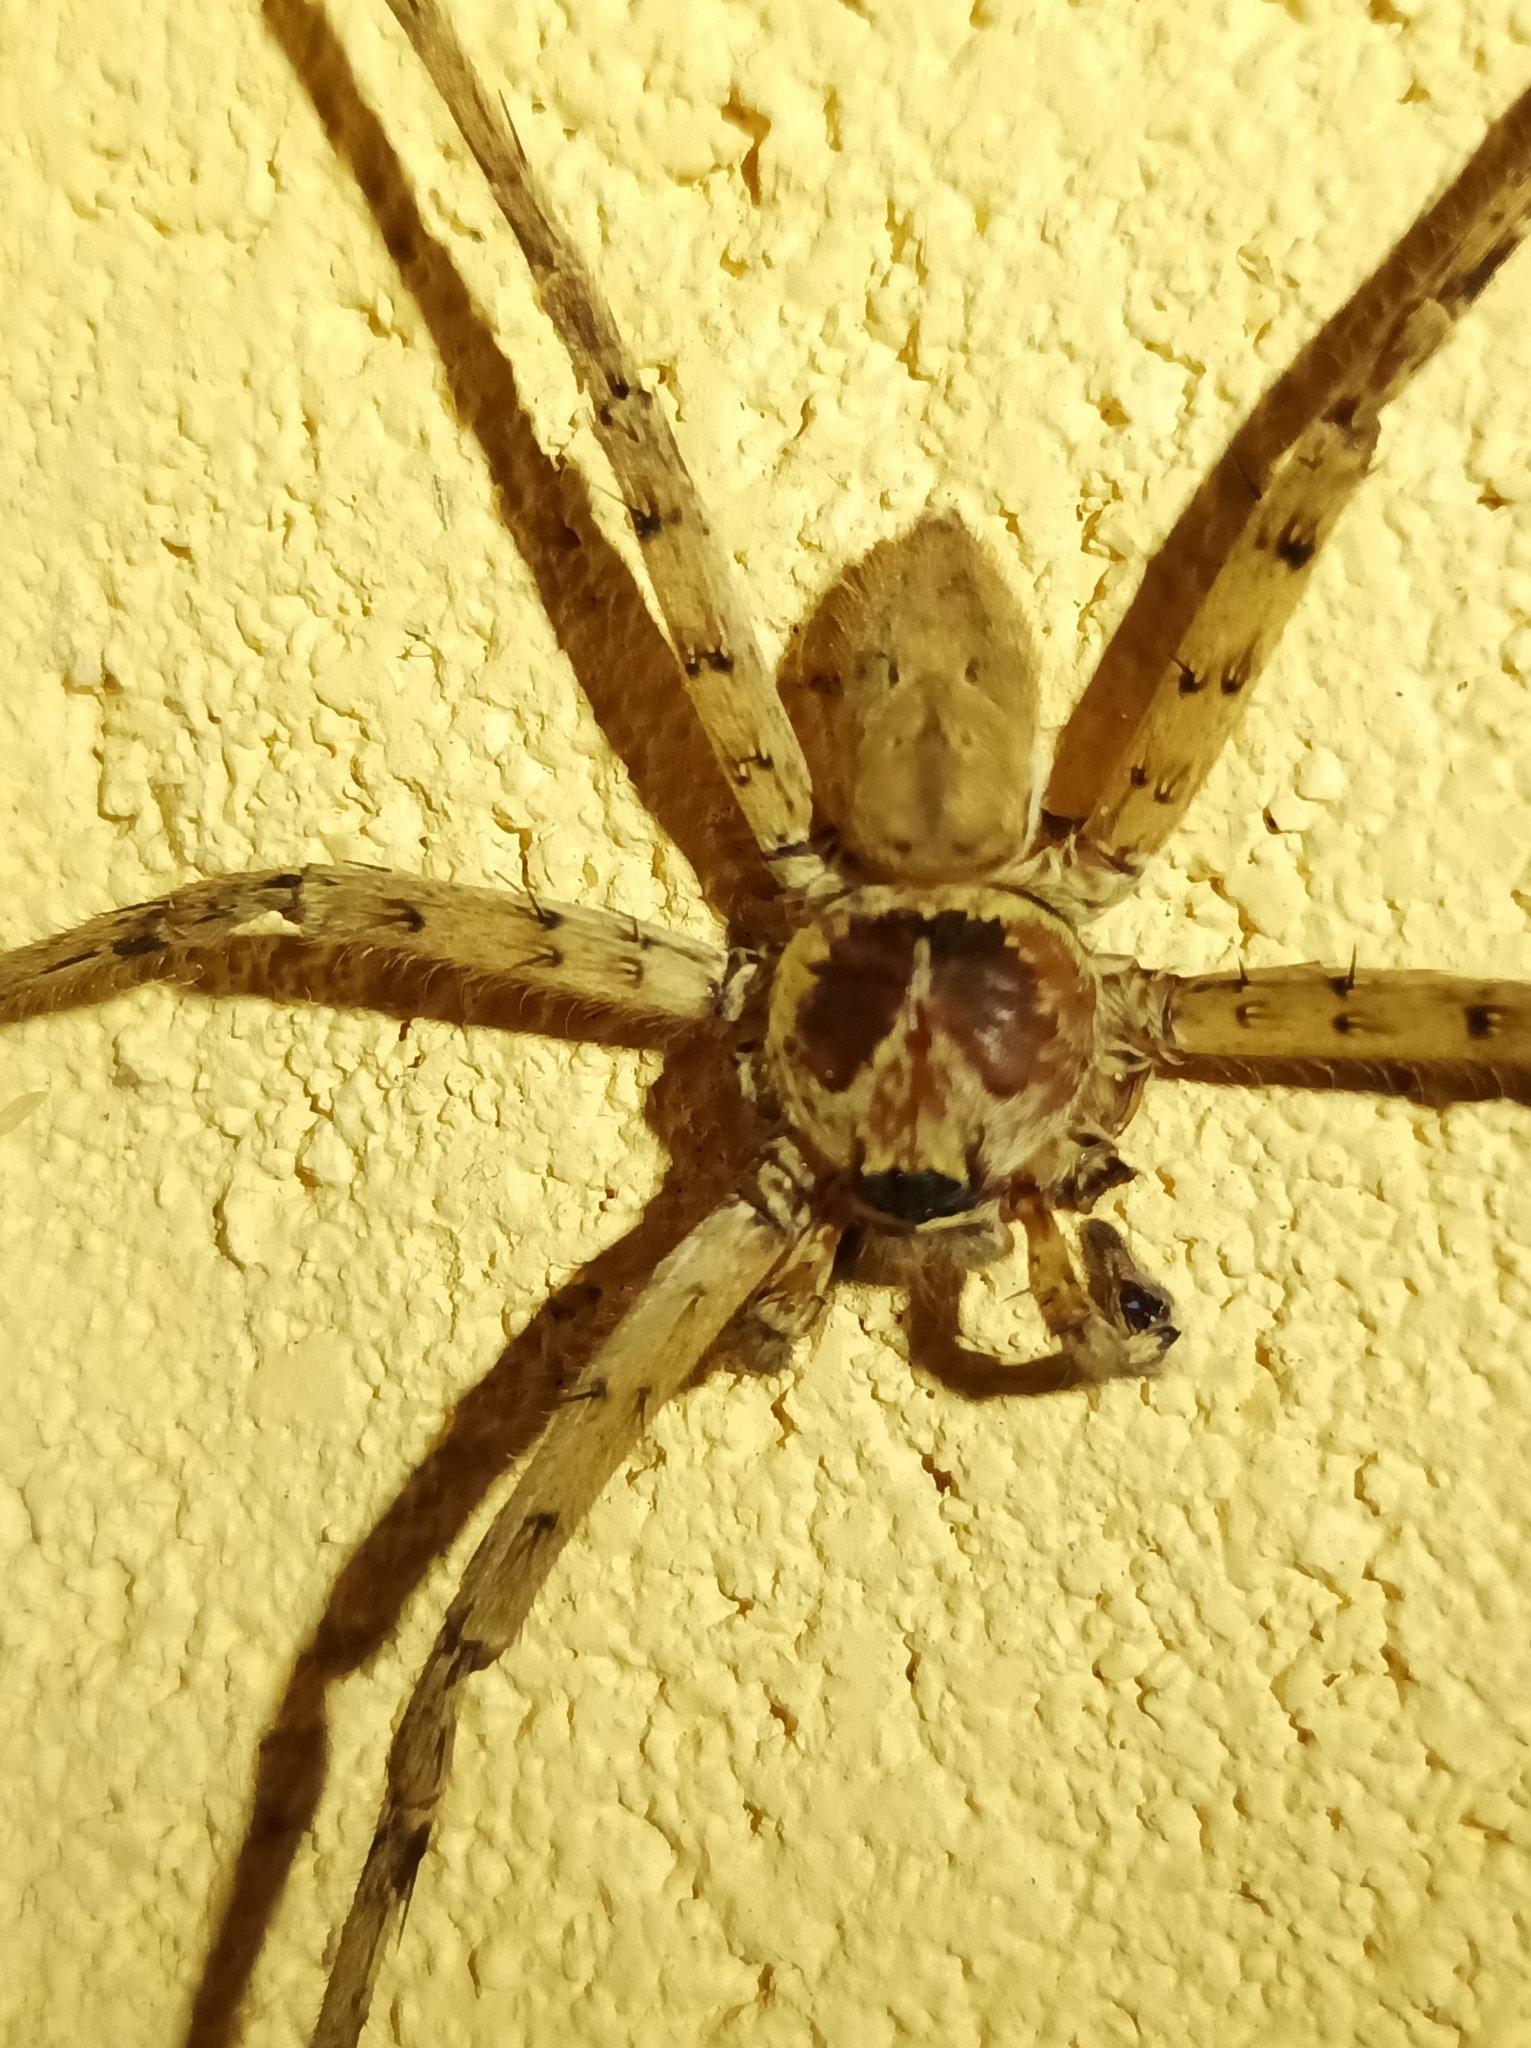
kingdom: Animalia
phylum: Arthropoda
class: Arachnida
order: Araneae
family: Sparassidae
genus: Heteropoda
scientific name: Heteropoda venatoria
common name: Huntsman spider
